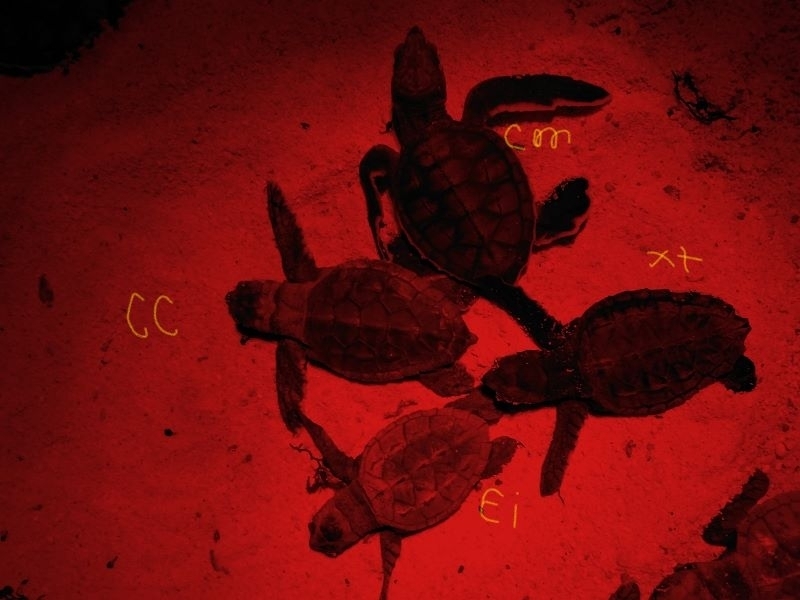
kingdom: Animalia
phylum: Chordata
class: Testudines
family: Cheloniidae
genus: Chelonia
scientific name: Chelonia mydas
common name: Green turtle
